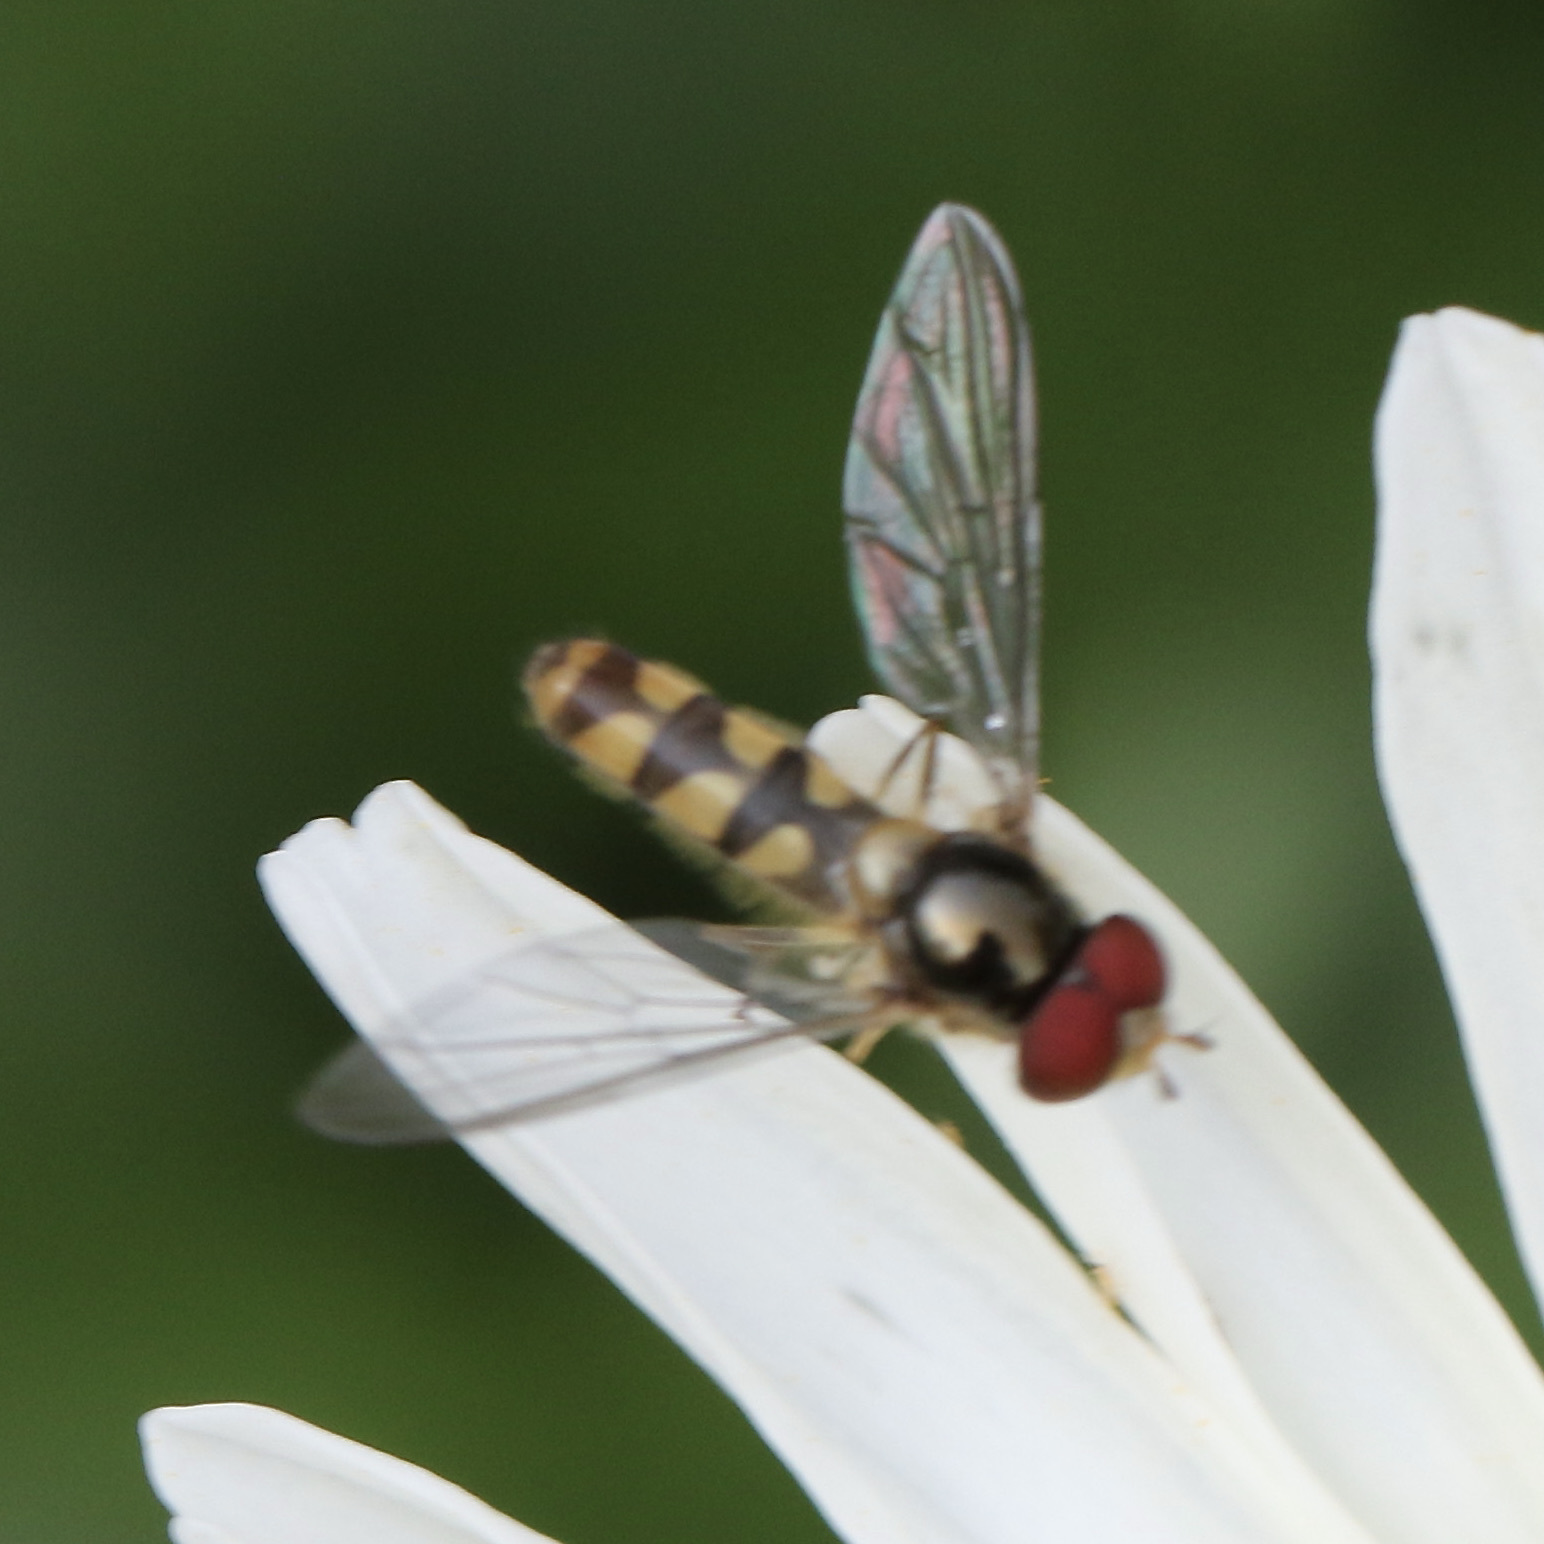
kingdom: Animalia
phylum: Arthropoda
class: Insecta
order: Diptera
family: Syrphidae
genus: Meliscaeva
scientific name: Meliscaeva auricollis
